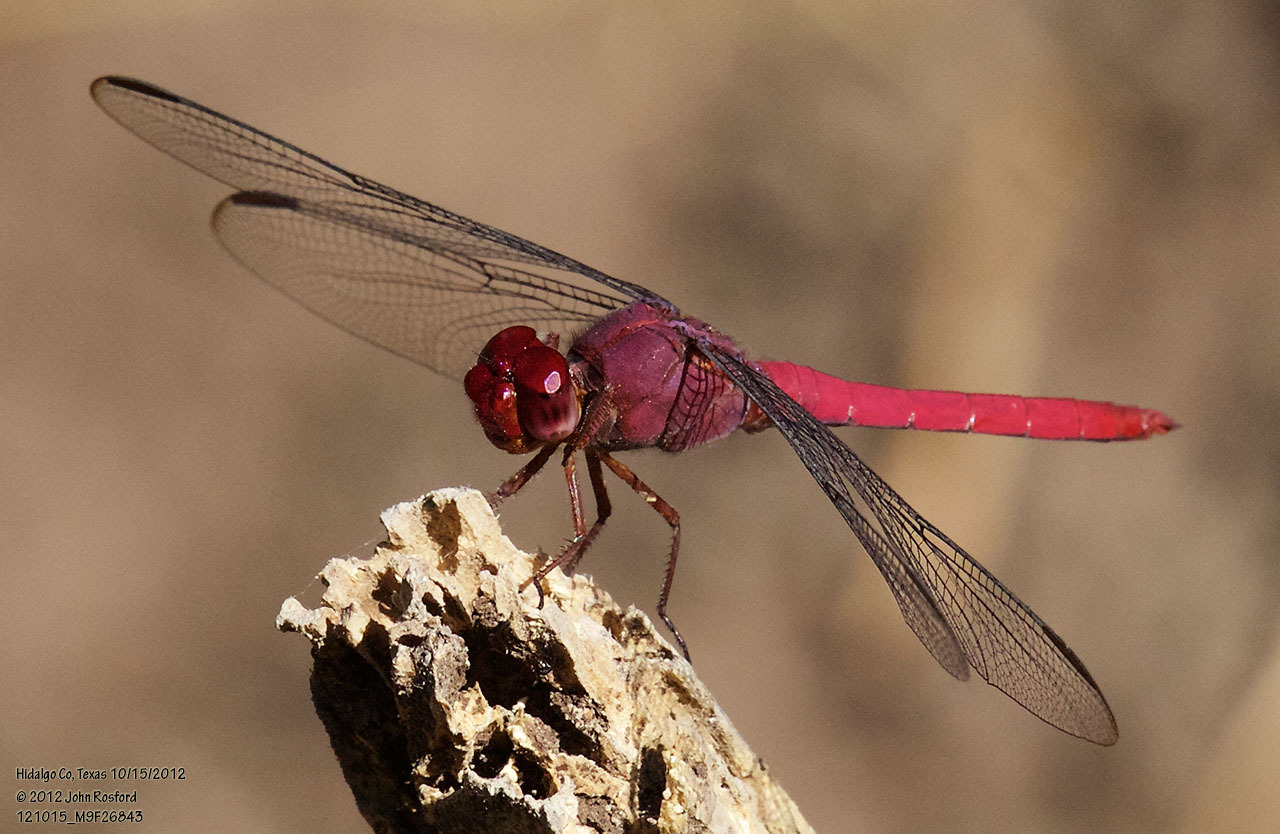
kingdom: Animalia
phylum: Arthropoda
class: Insecta
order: Odonata
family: Libellulidae
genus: Orthemis
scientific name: Orthemis discolor
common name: Carmine skimmer
